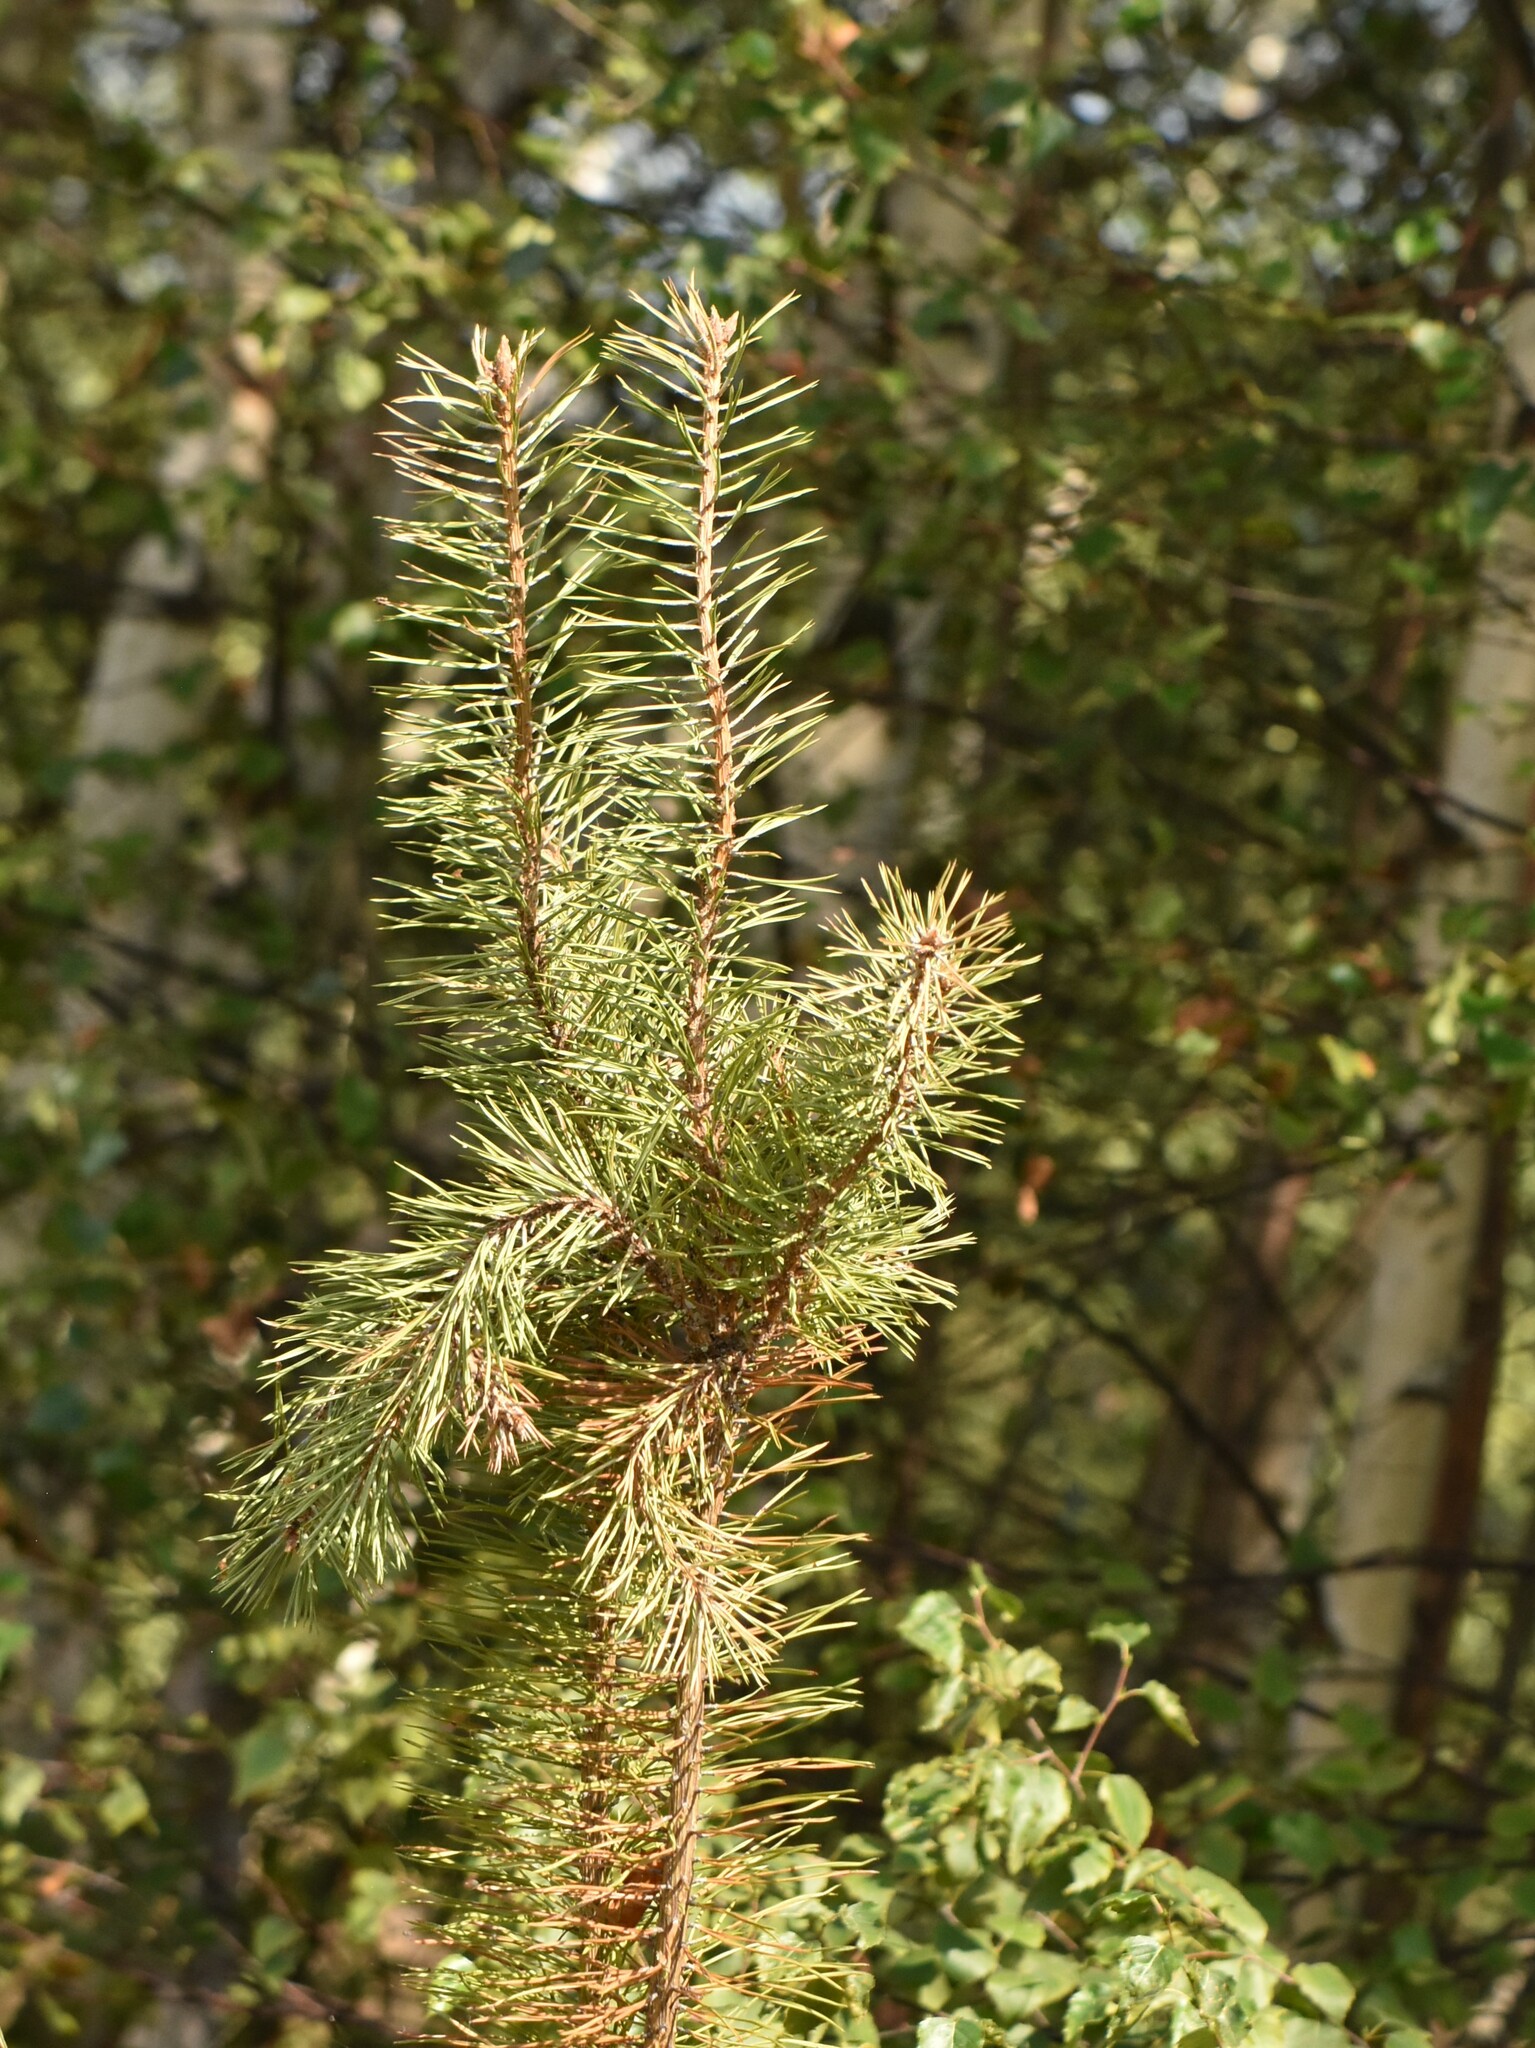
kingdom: Plantae
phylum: Tracheophyta
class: Pinopsida
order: Pinales
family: Pinaceae
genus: Pinus
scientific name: Pinus sylvestris
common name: Scots pine
